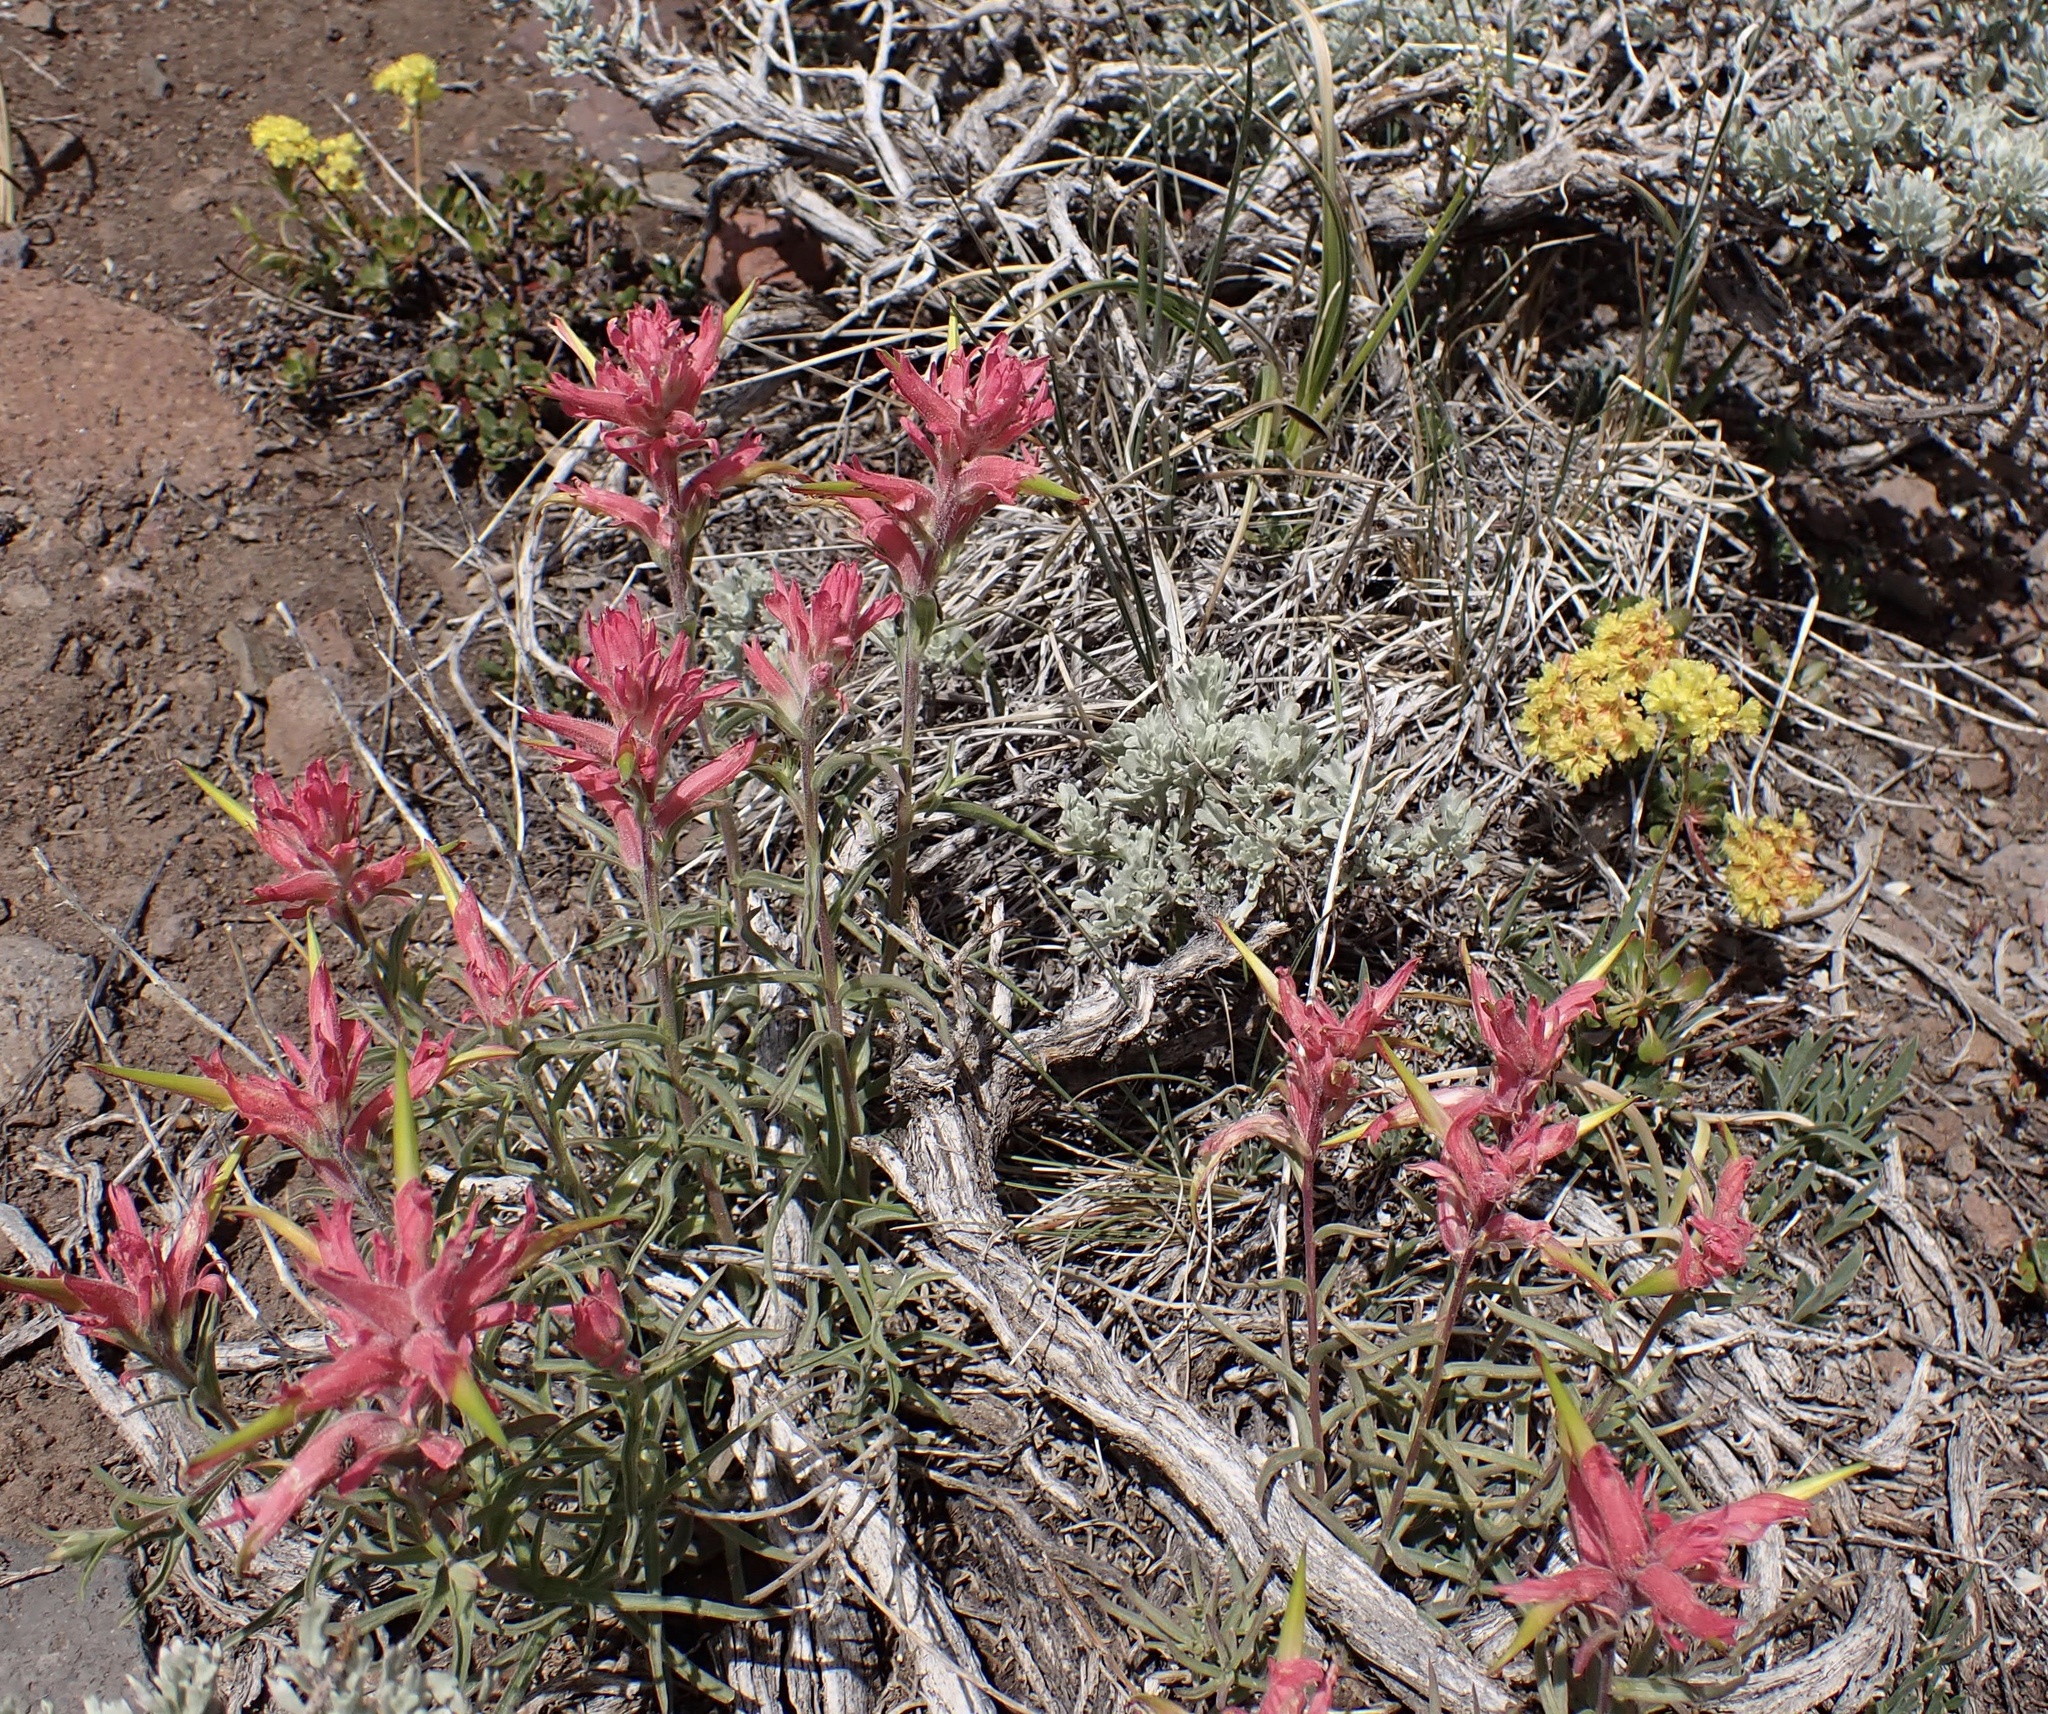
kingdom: Plantae
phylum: Tracheophyta
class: Magnoliopsida
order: Lamiales
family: Orobanchaceae
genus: Castilleja
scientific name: Castilleja linariifolia
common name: Wyoming paintbrush
